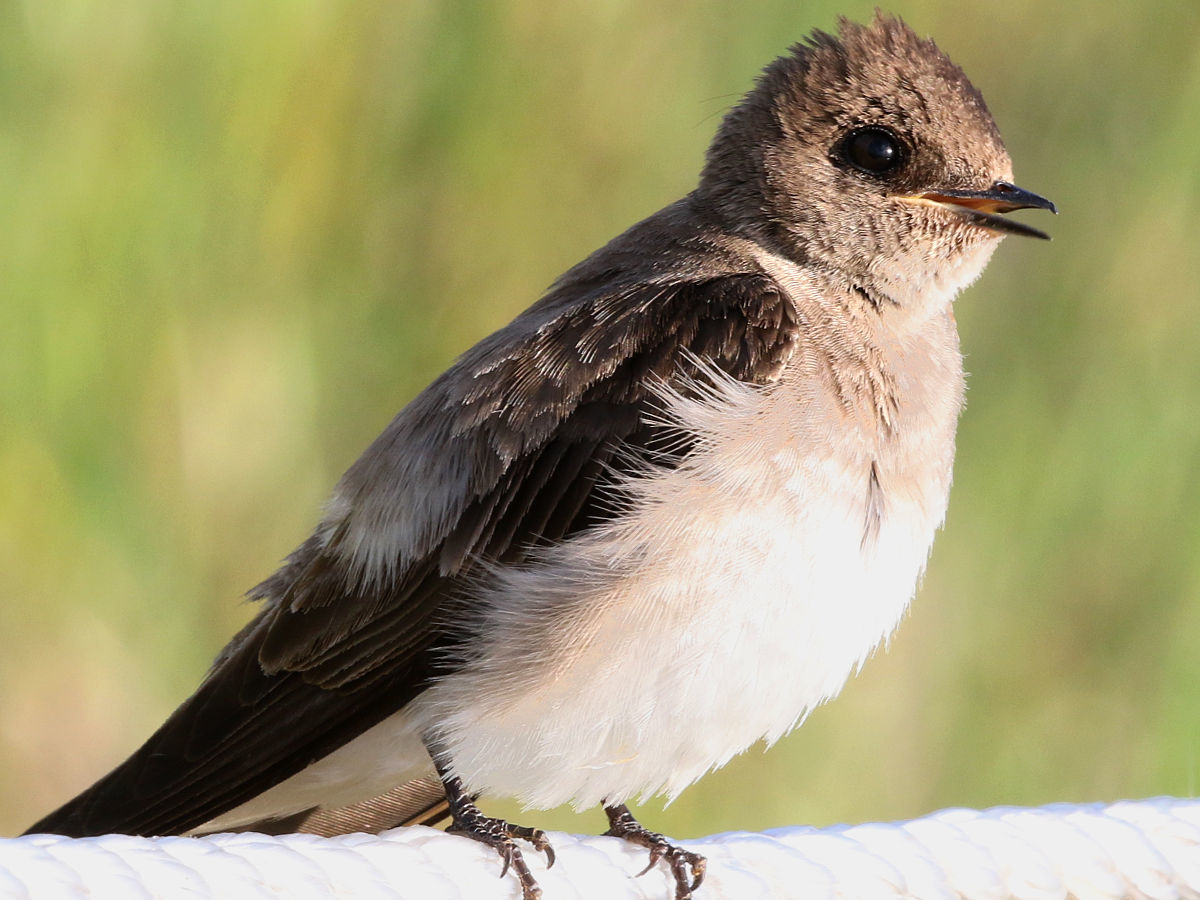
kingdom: Animalia
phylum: Chordata
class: Aves
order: Passeriformes
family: Hirundinidae
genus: Stelgidopteryx
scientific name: Stelgidopteryx serripennis
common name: Northern rough-winged swallow
